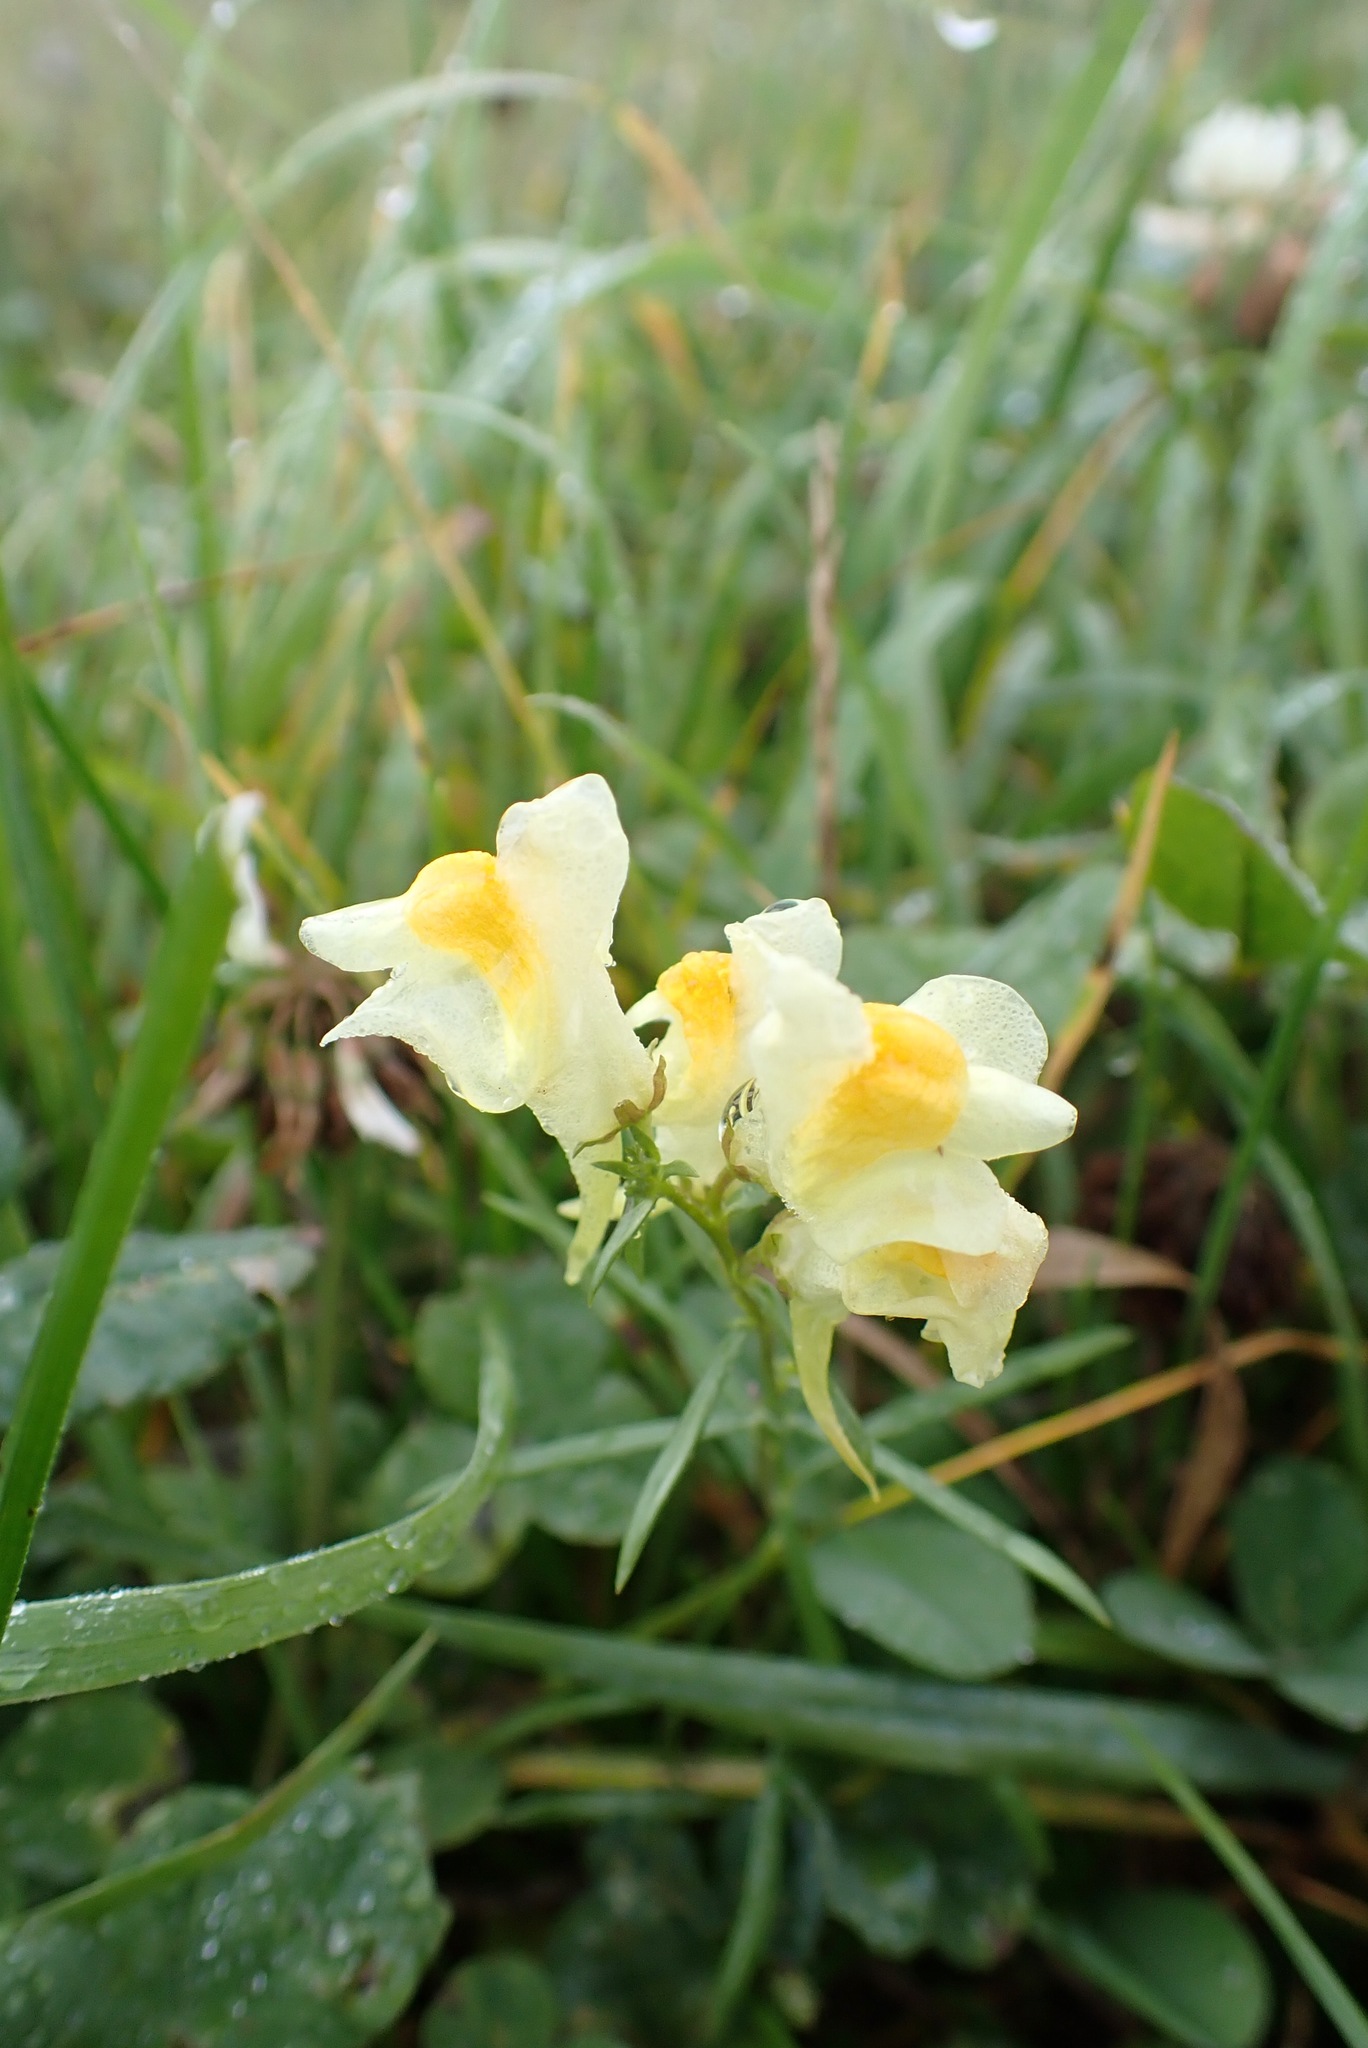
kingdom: Plantae
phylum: Tracheophyta
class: Magnoliopsida
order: Lamiales
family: Plantaginaceae
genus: Linaria
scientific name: Linaria vulgaris
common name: Butter and eggs
